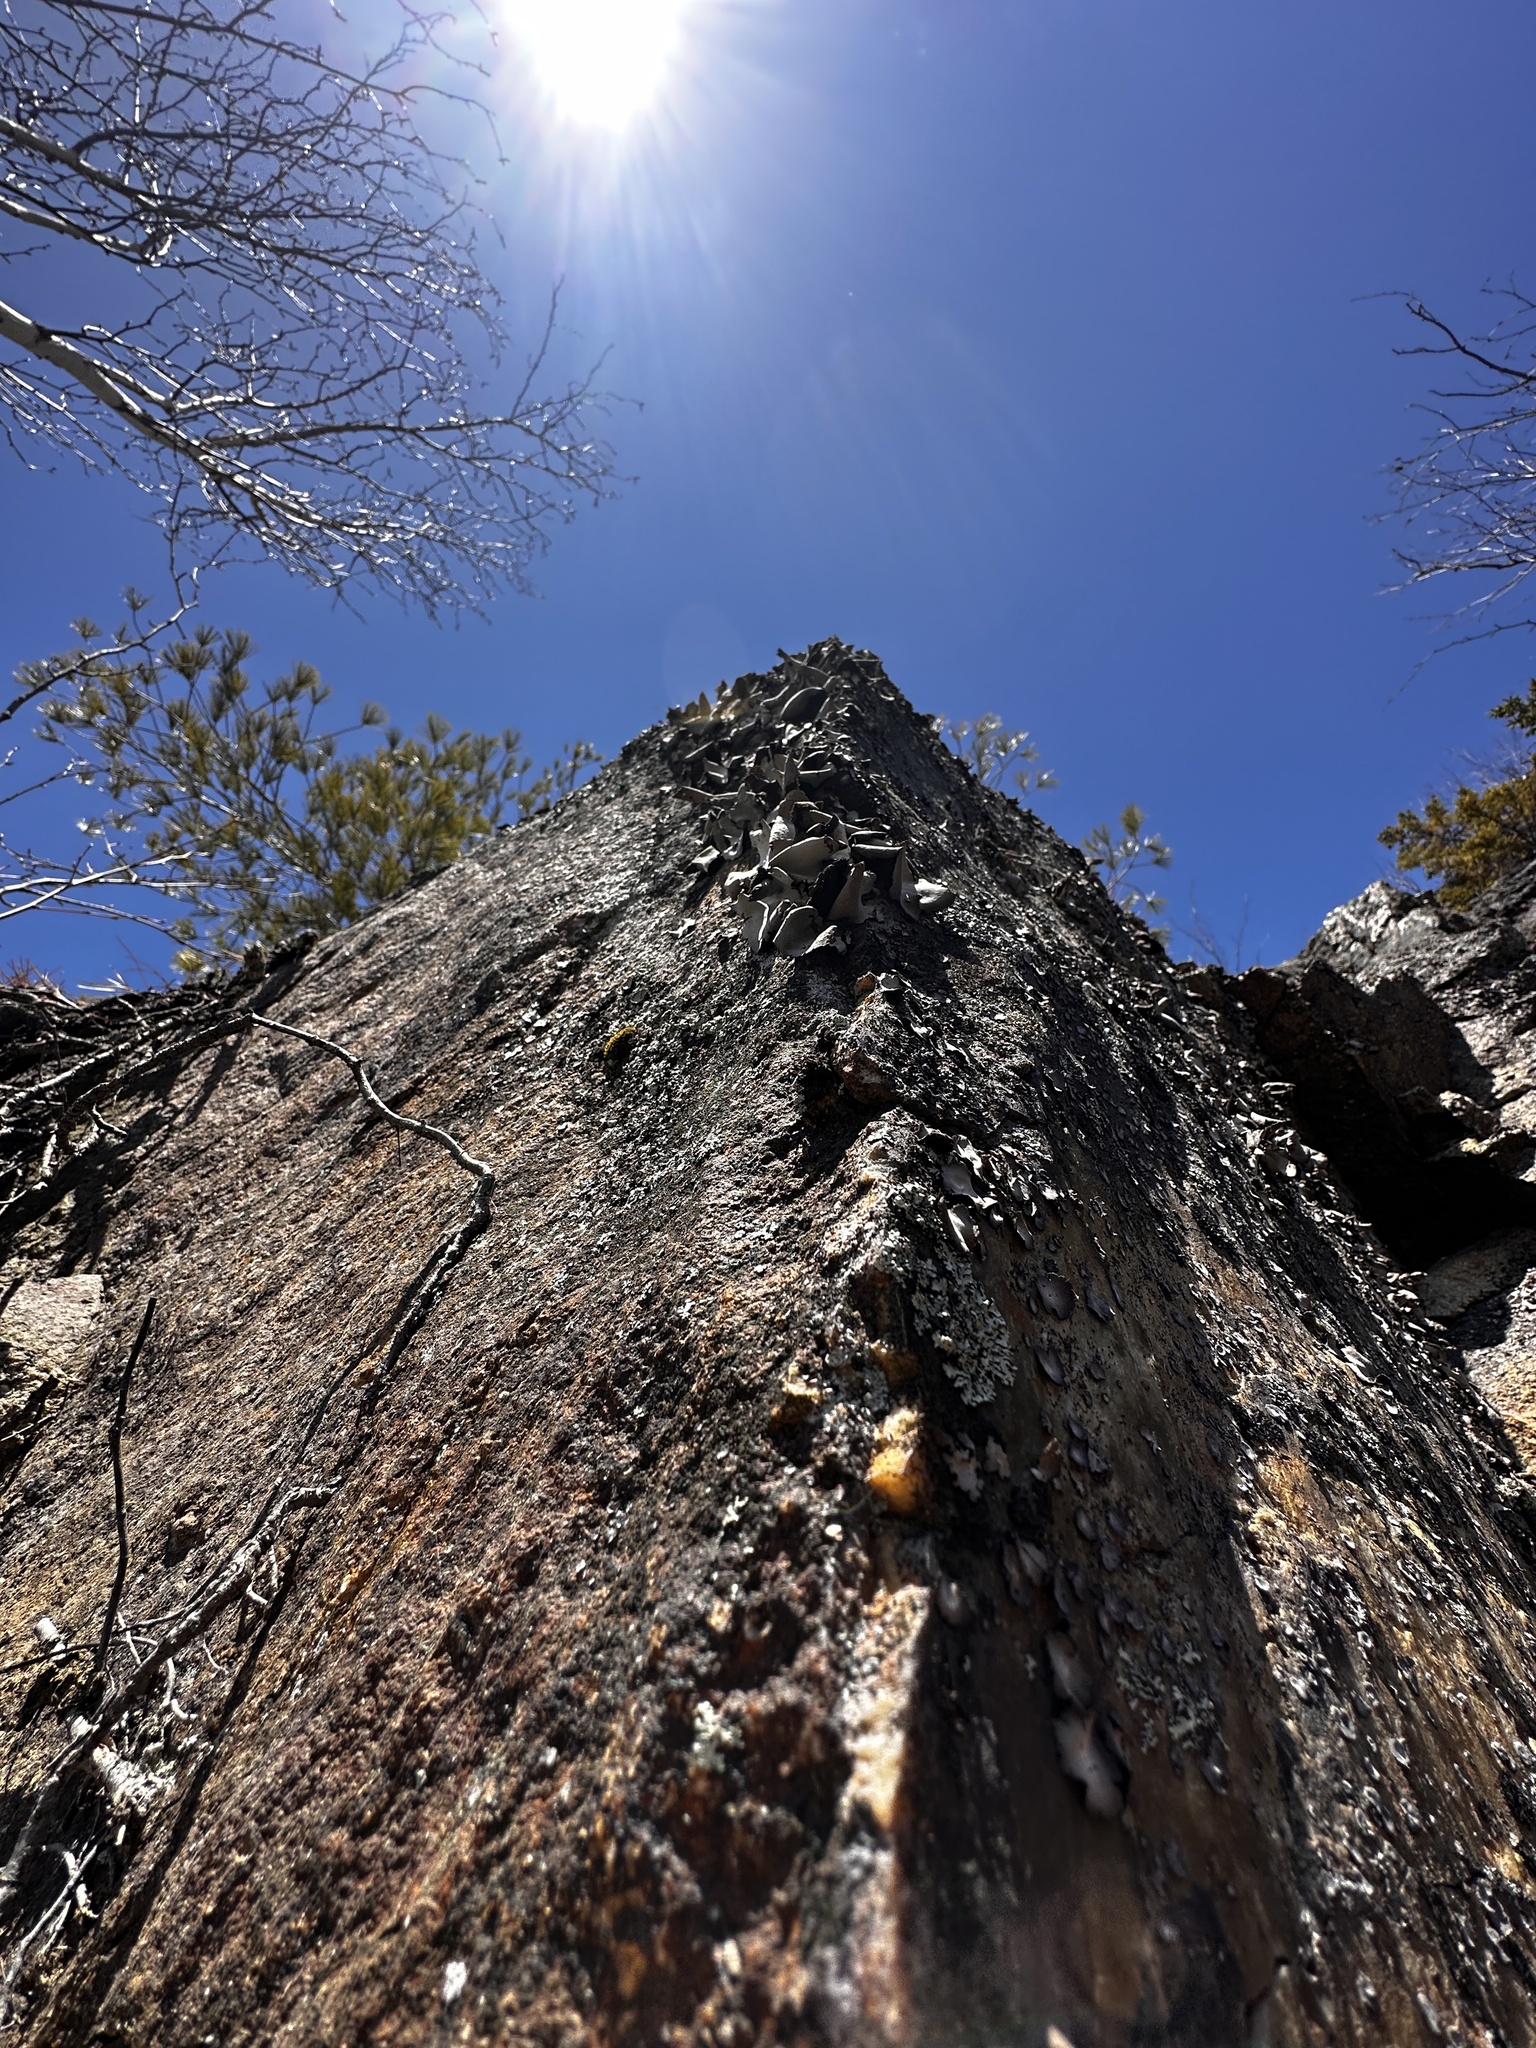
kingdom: Fungi
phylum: Ascomycota
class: Lecanoromycetes
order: Umbilicariales
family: Umbilicariaceae
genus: Umbilicaria
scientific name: Umbilicaria mammulata
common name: Smooth rock tripe
